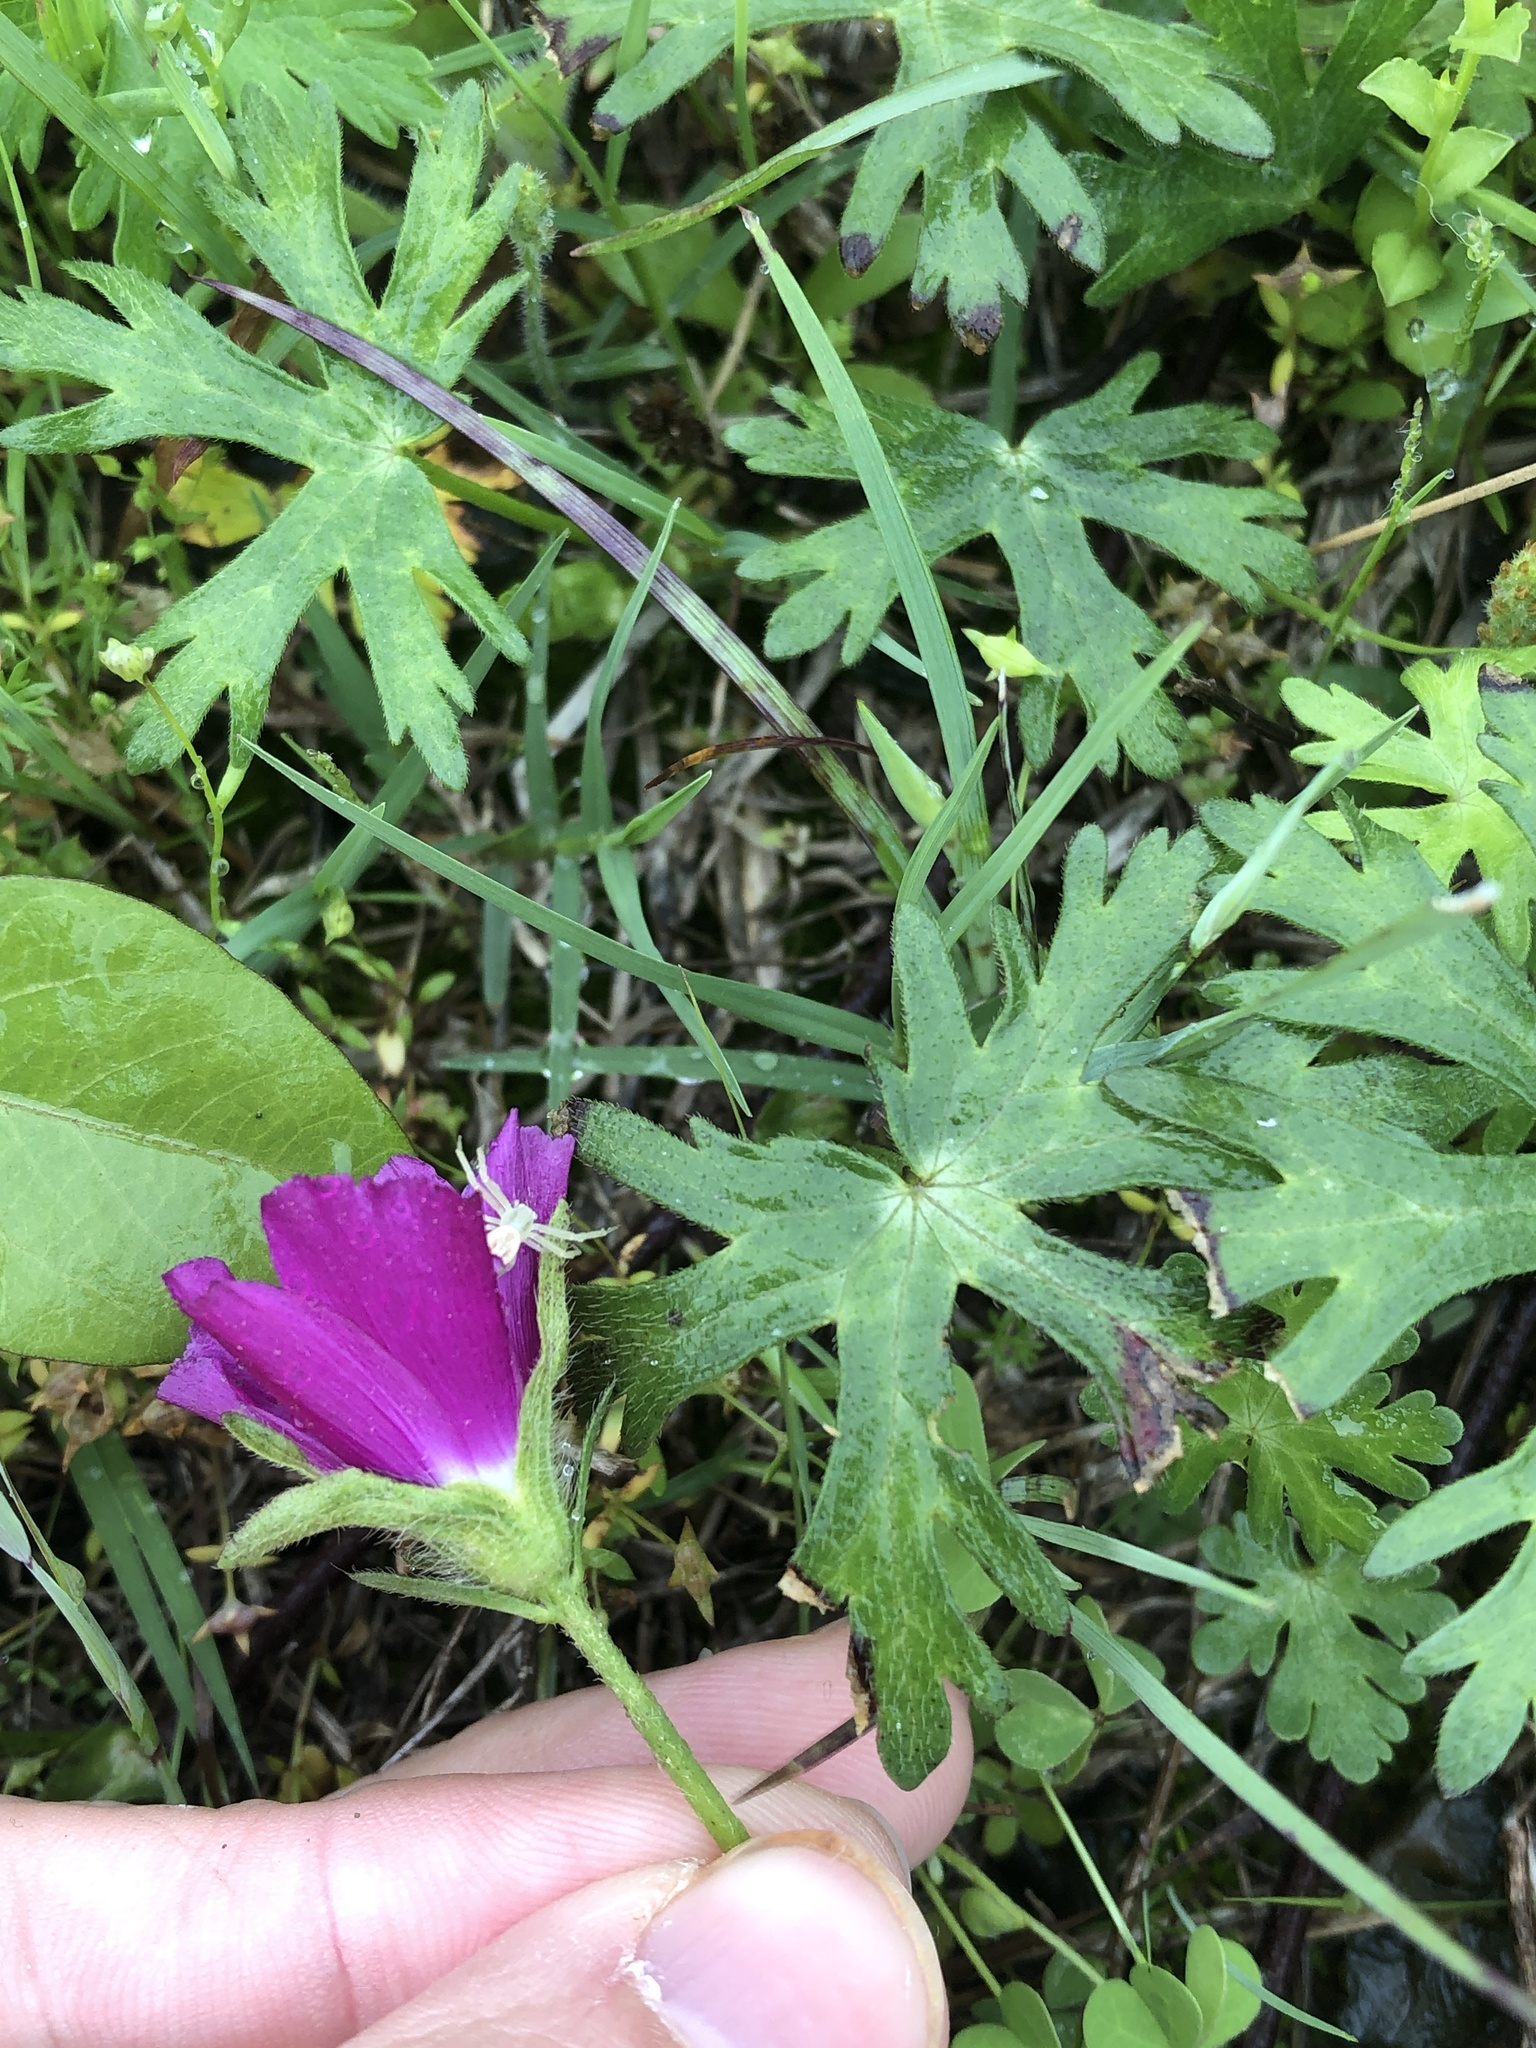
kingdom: Plantae
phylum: Tracheophyta
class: Magnoliopsida
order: Malvales
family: Malvaceae
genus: Callirhoe
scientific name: Callirhoe involucrata
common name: Purple poppy-mallow
